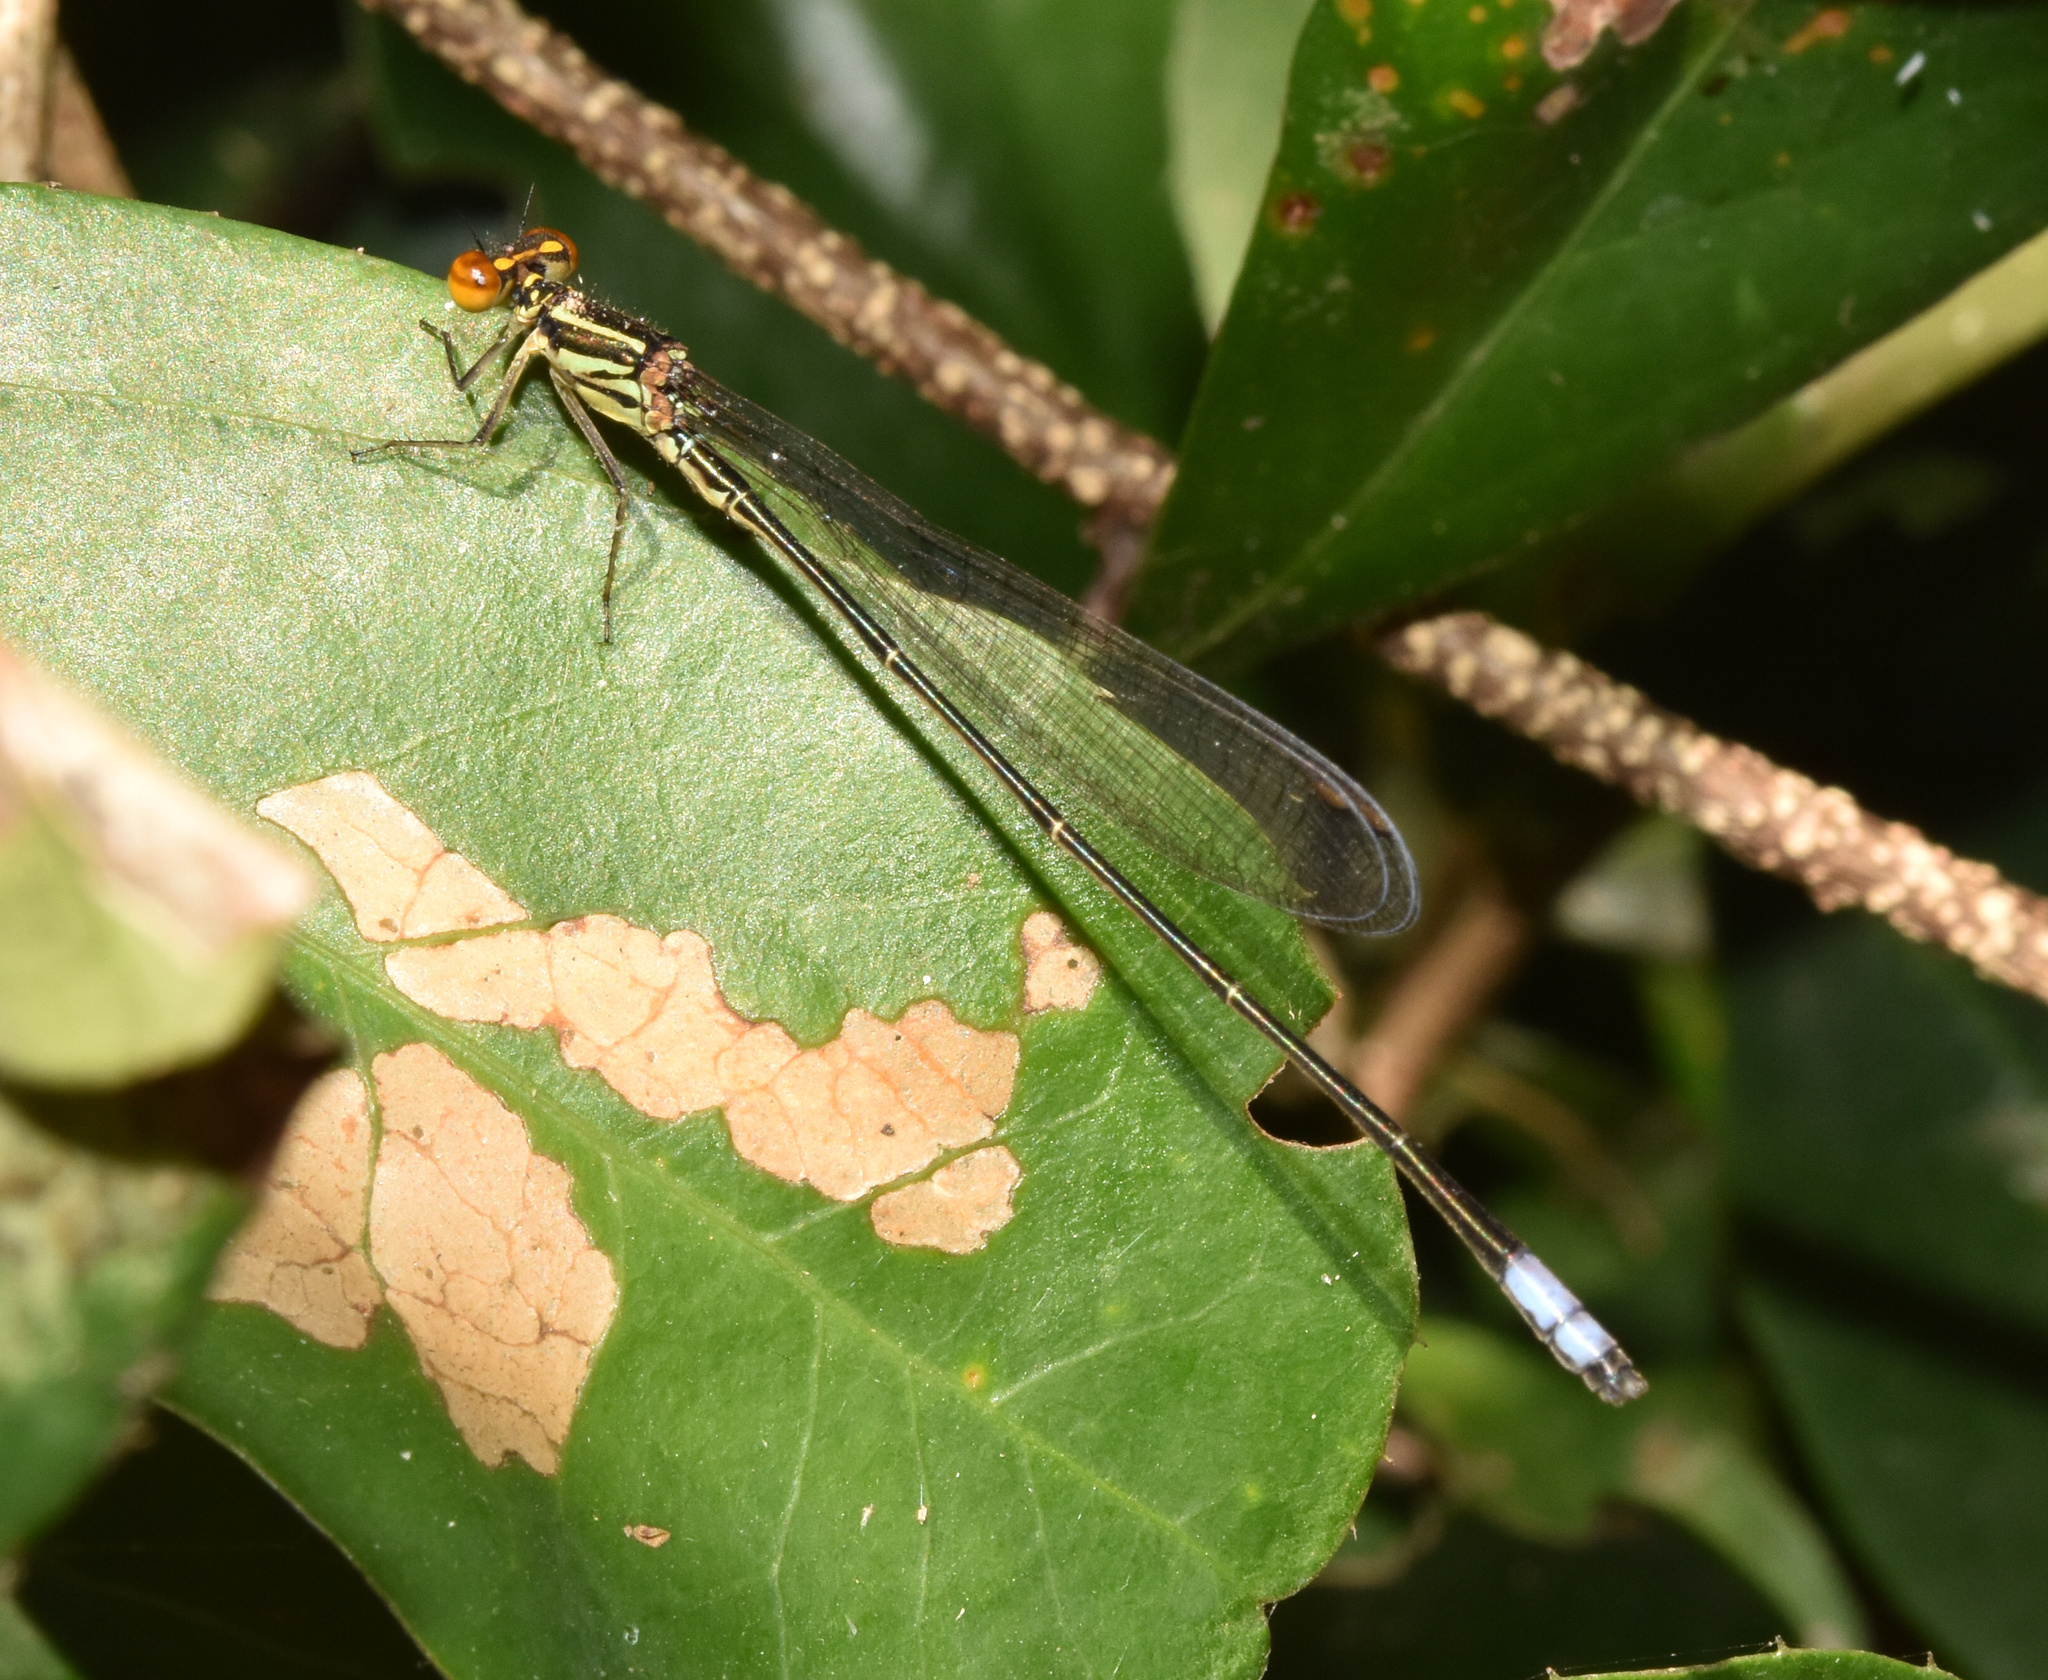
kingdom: Animalia
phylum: Arthropoda
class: Insecta
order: Odonata
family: Coenagrionidae
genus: Pseudagrion
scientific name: Pseudagrion hageni
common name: Painted sprite
